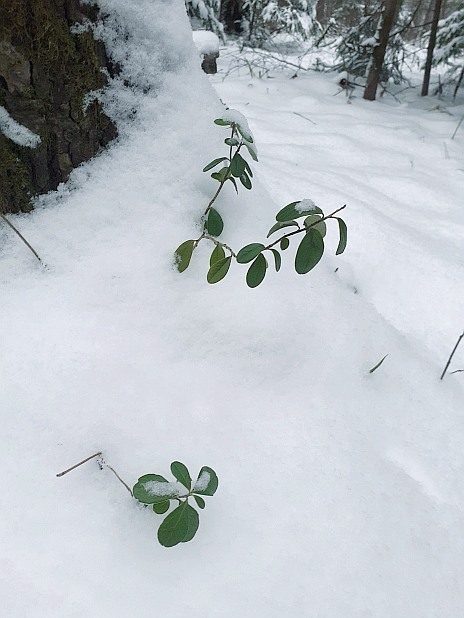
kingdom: Plantae
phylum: Tracheophyta
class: Magnoliopsida
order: Ericales
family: Ericaceae
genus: Vaccinium
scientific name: Vaccinium vitis-idaea
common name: Cowberry
